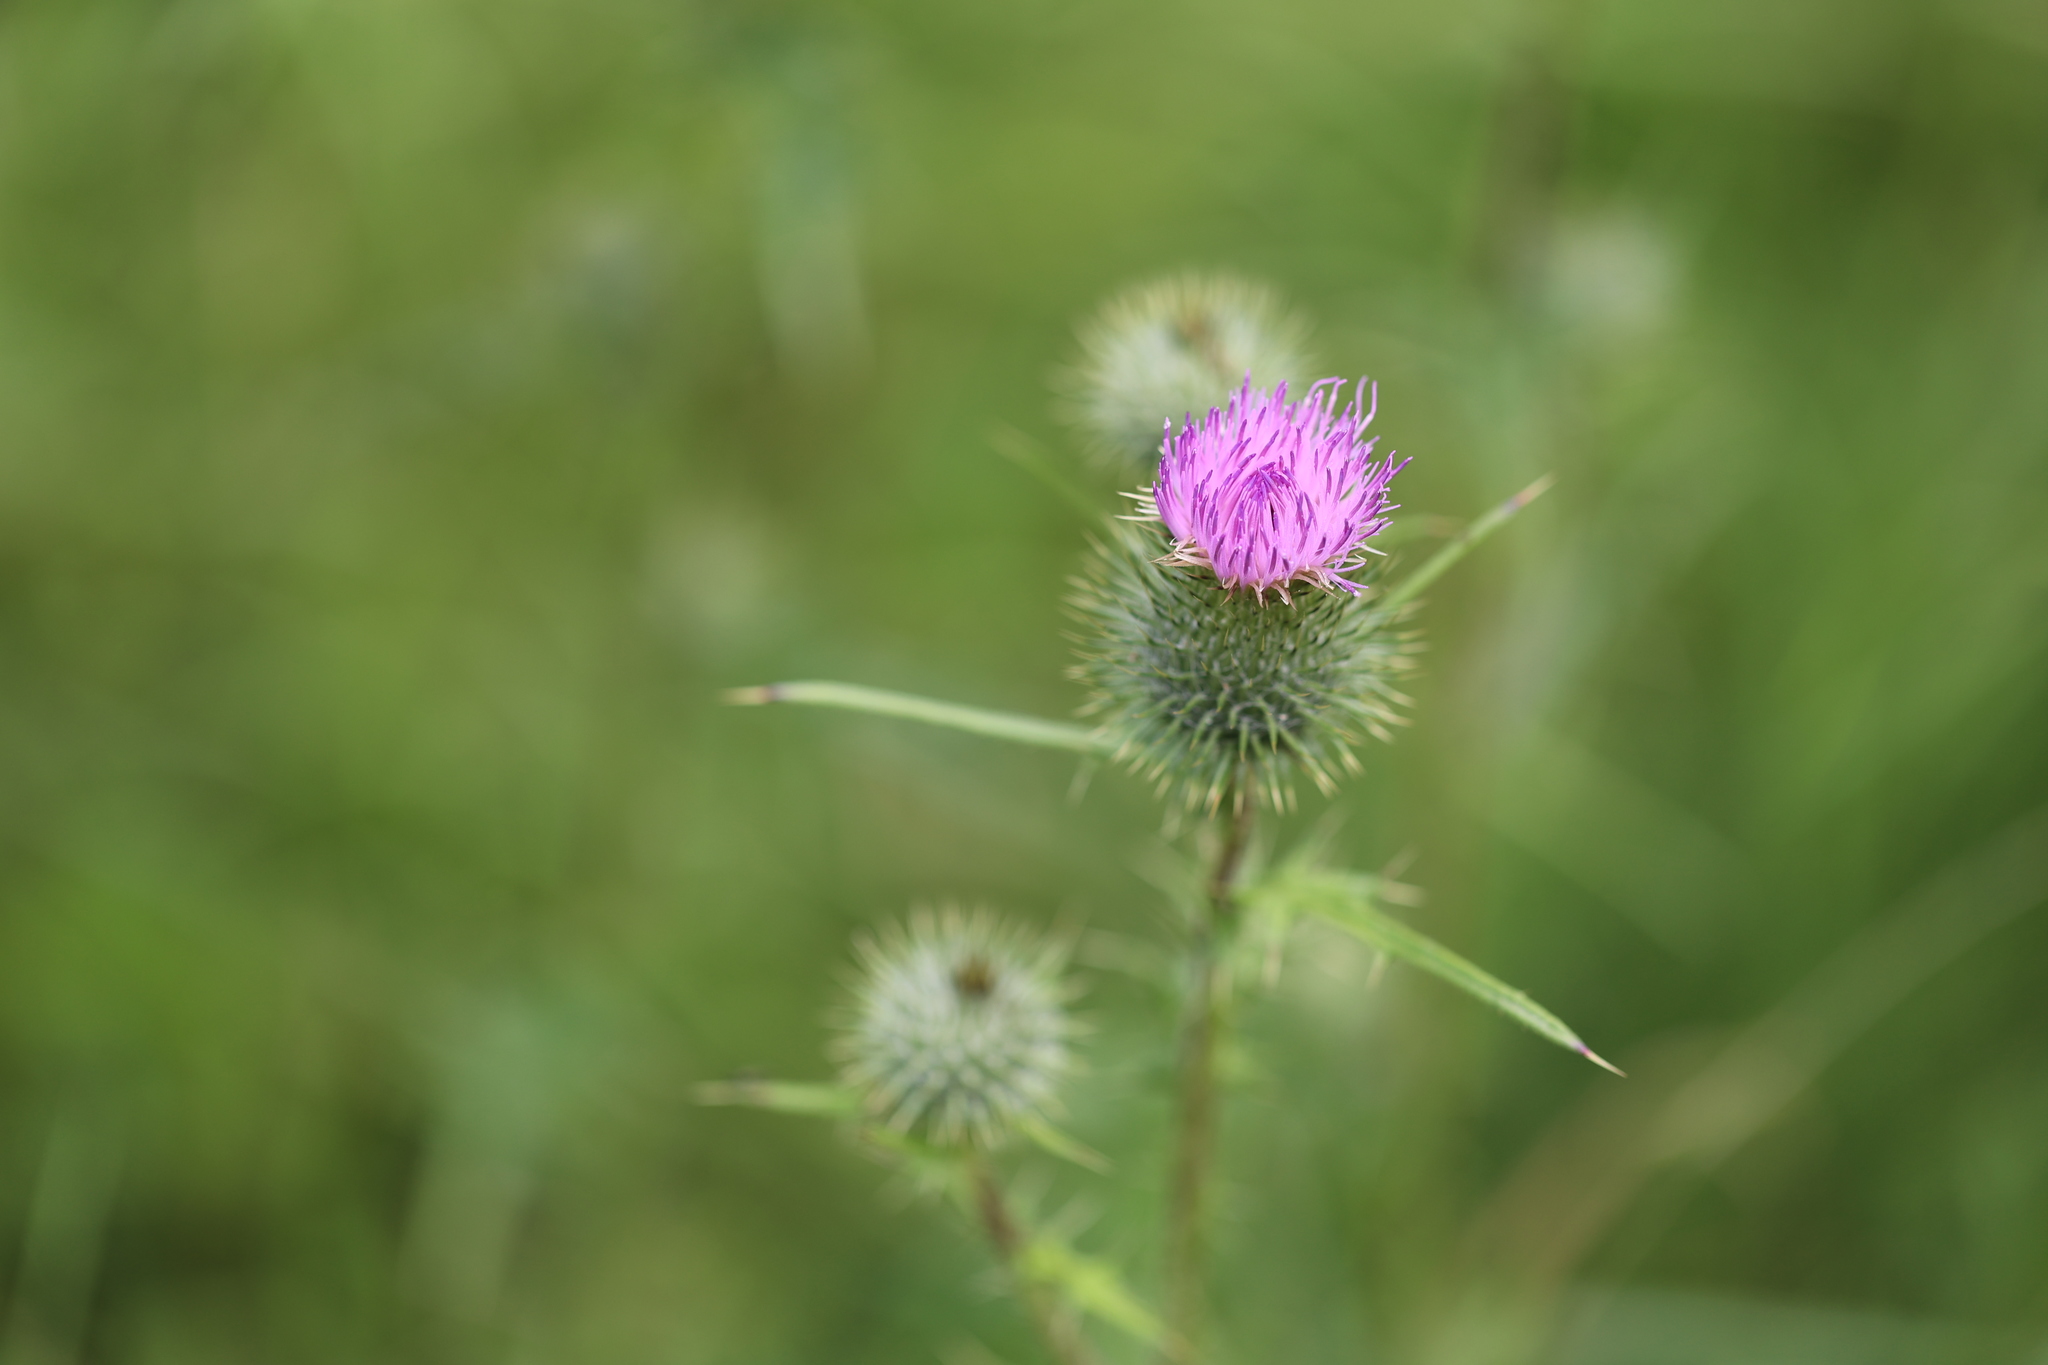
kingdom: Plantae
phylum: Tracheophyta
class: Magnoliopsida
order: Asterales
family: Asteraceae
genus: Cirsium
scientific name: Cirsium vulgare
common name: Bull thistle
